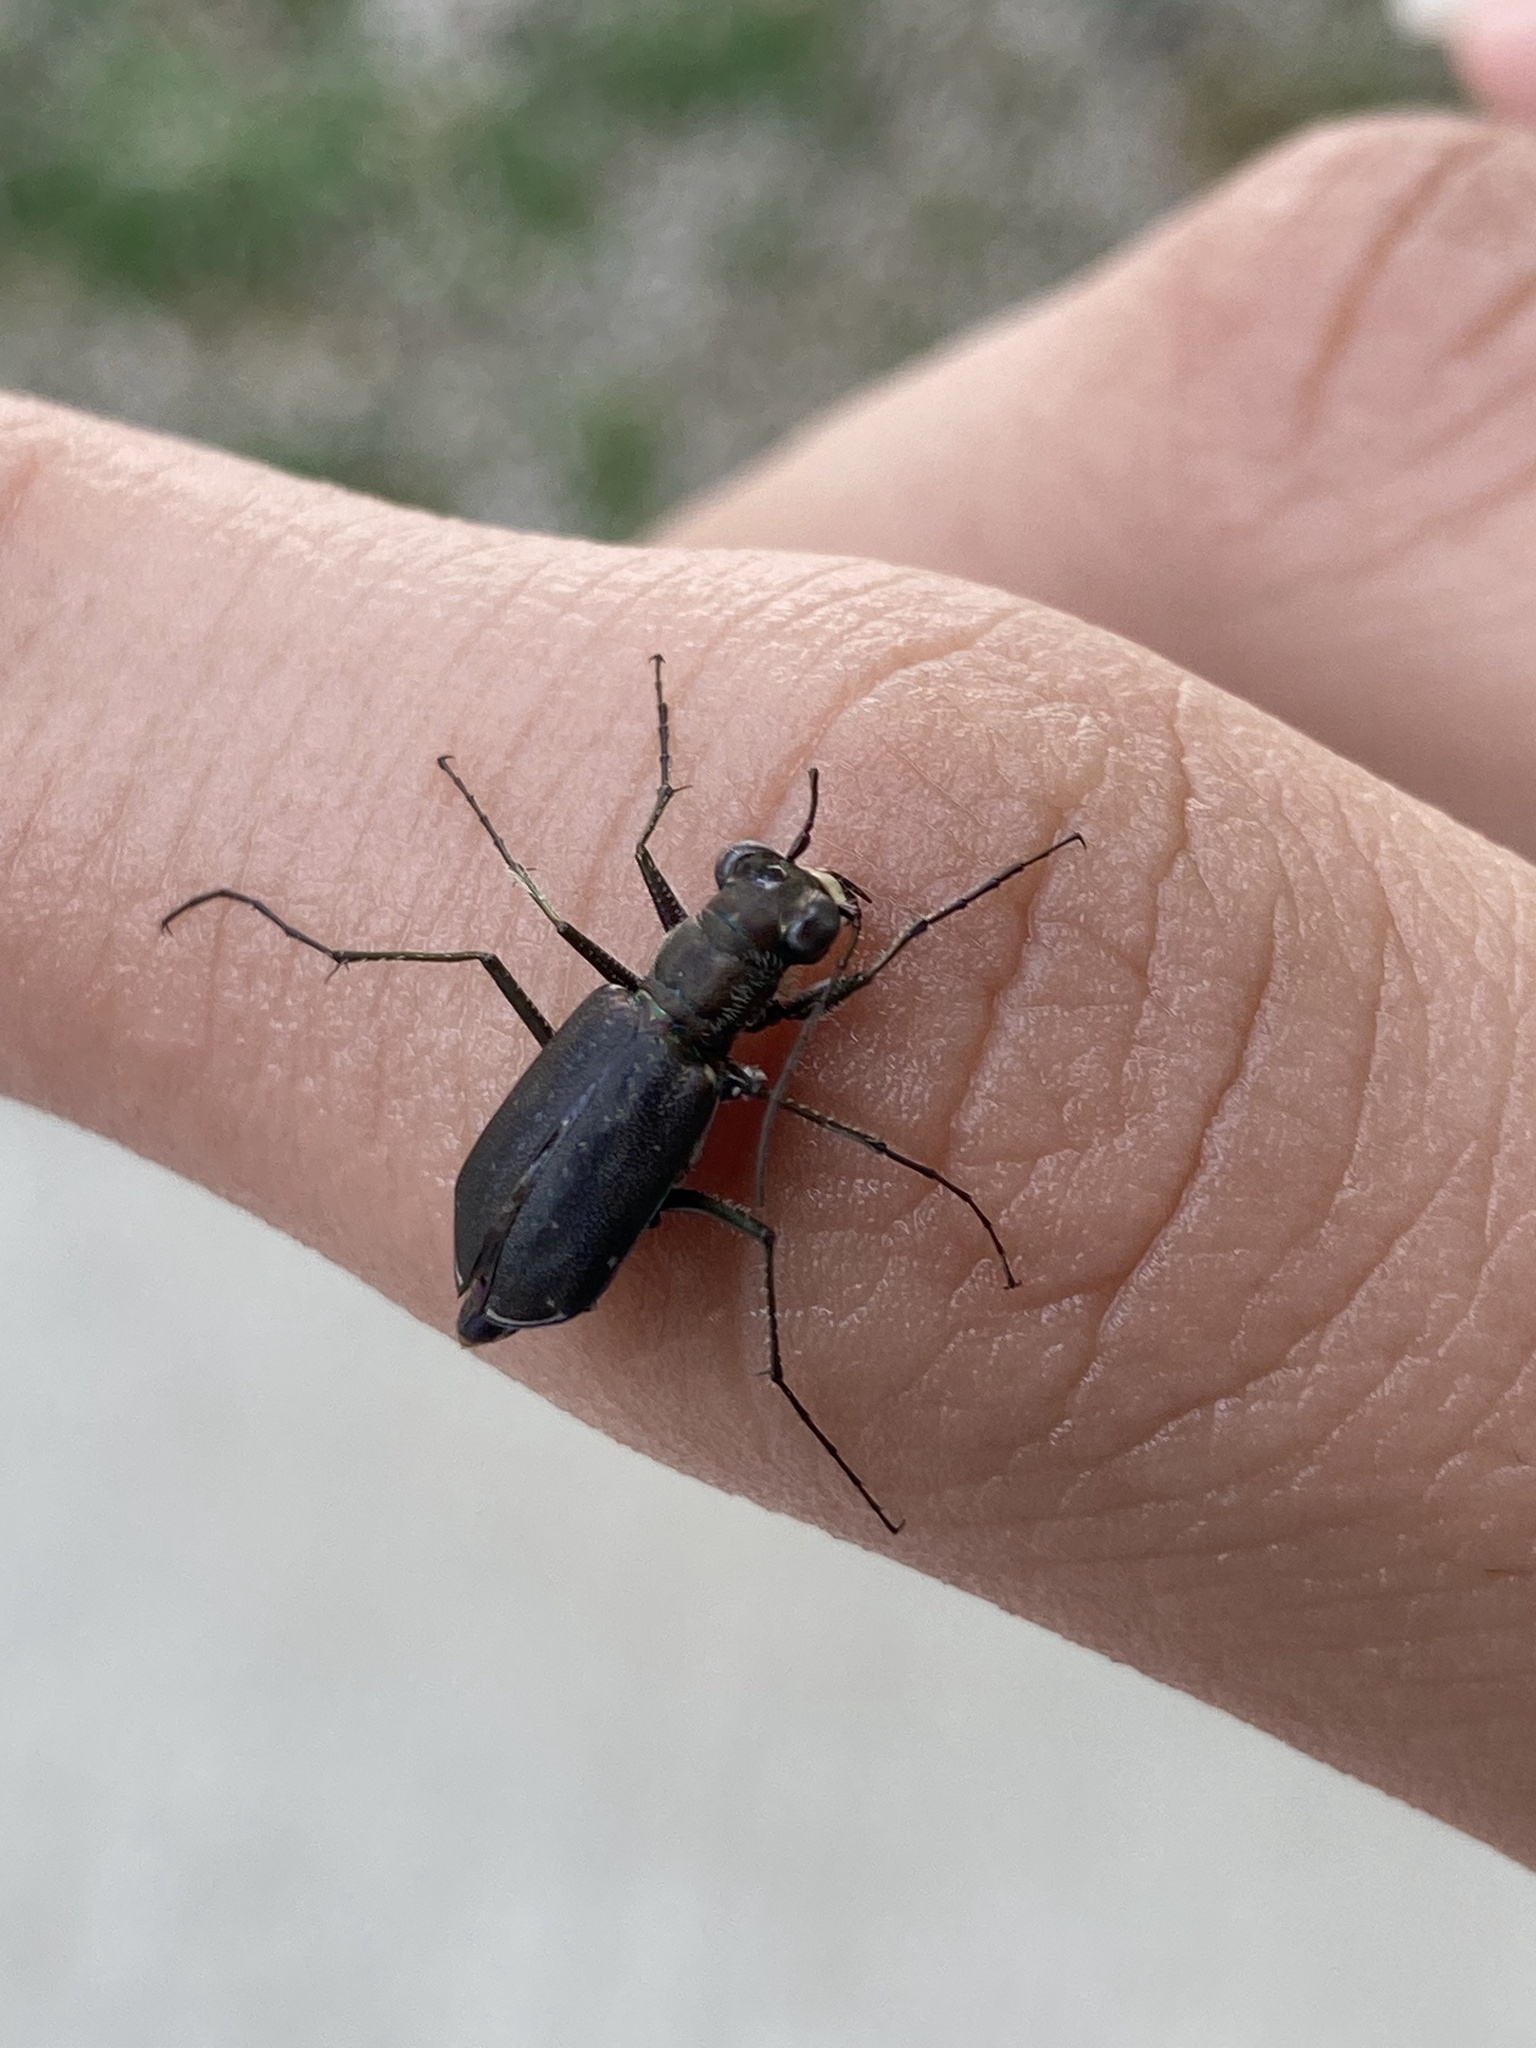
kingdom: Animalia
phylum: Arthropoda
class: Insecta
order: Coleoptera
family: Carabidae
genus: Cicindela
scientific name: Cicindela punctulata
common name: Punctured tiger beetle
